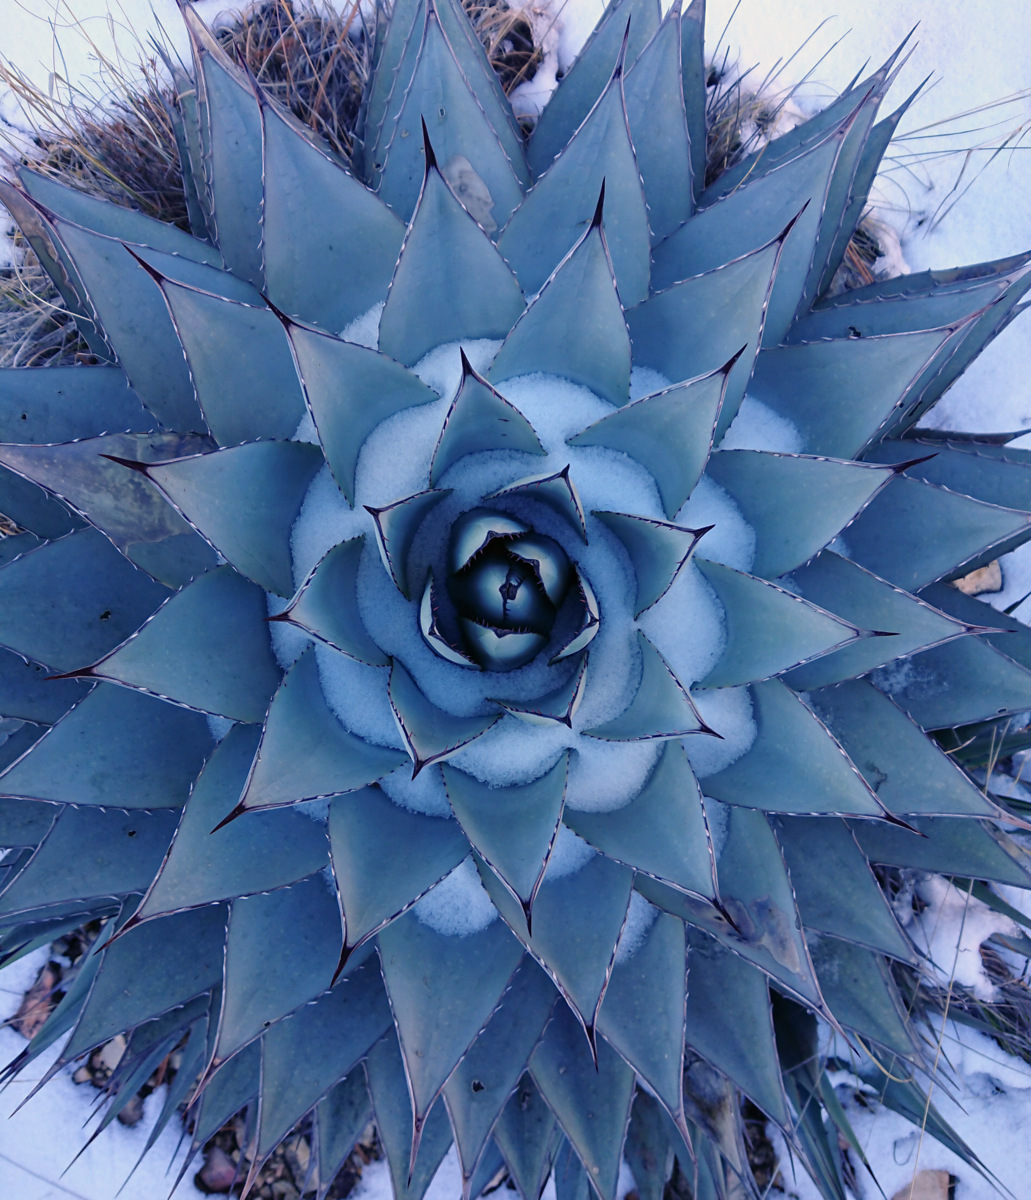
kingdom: Plantae
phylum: Tracheophyta
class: Liliopsida
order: Asparagales
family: Asparagaceae
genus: Agave
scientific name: Agave parryi
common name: Parry's agave
